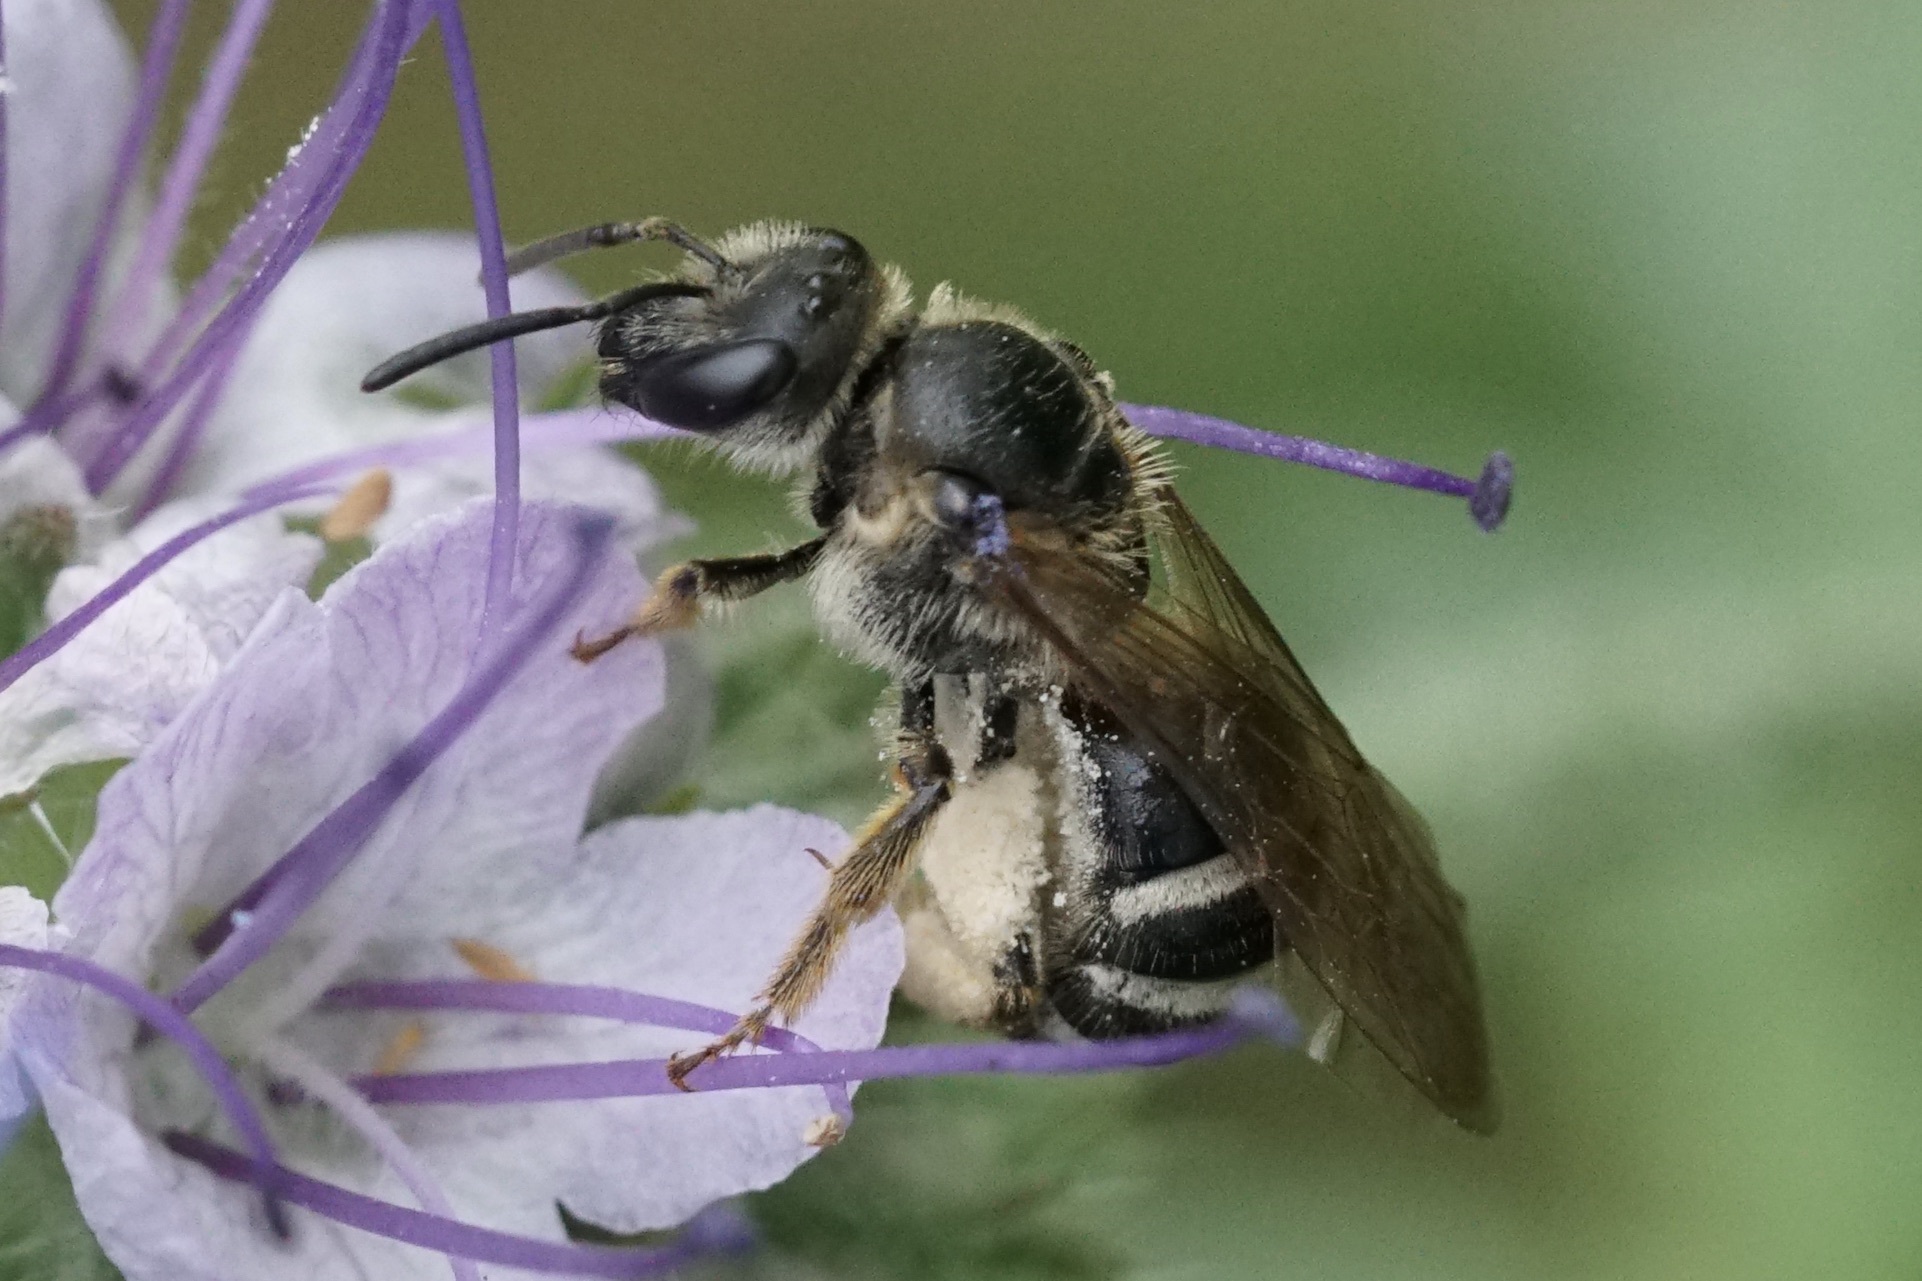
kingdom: Animalia
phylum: Arthropoda
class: Insecta
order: Hymenoptera
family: Halictidae
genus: Lasioglossum
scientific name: Lasioglossum
